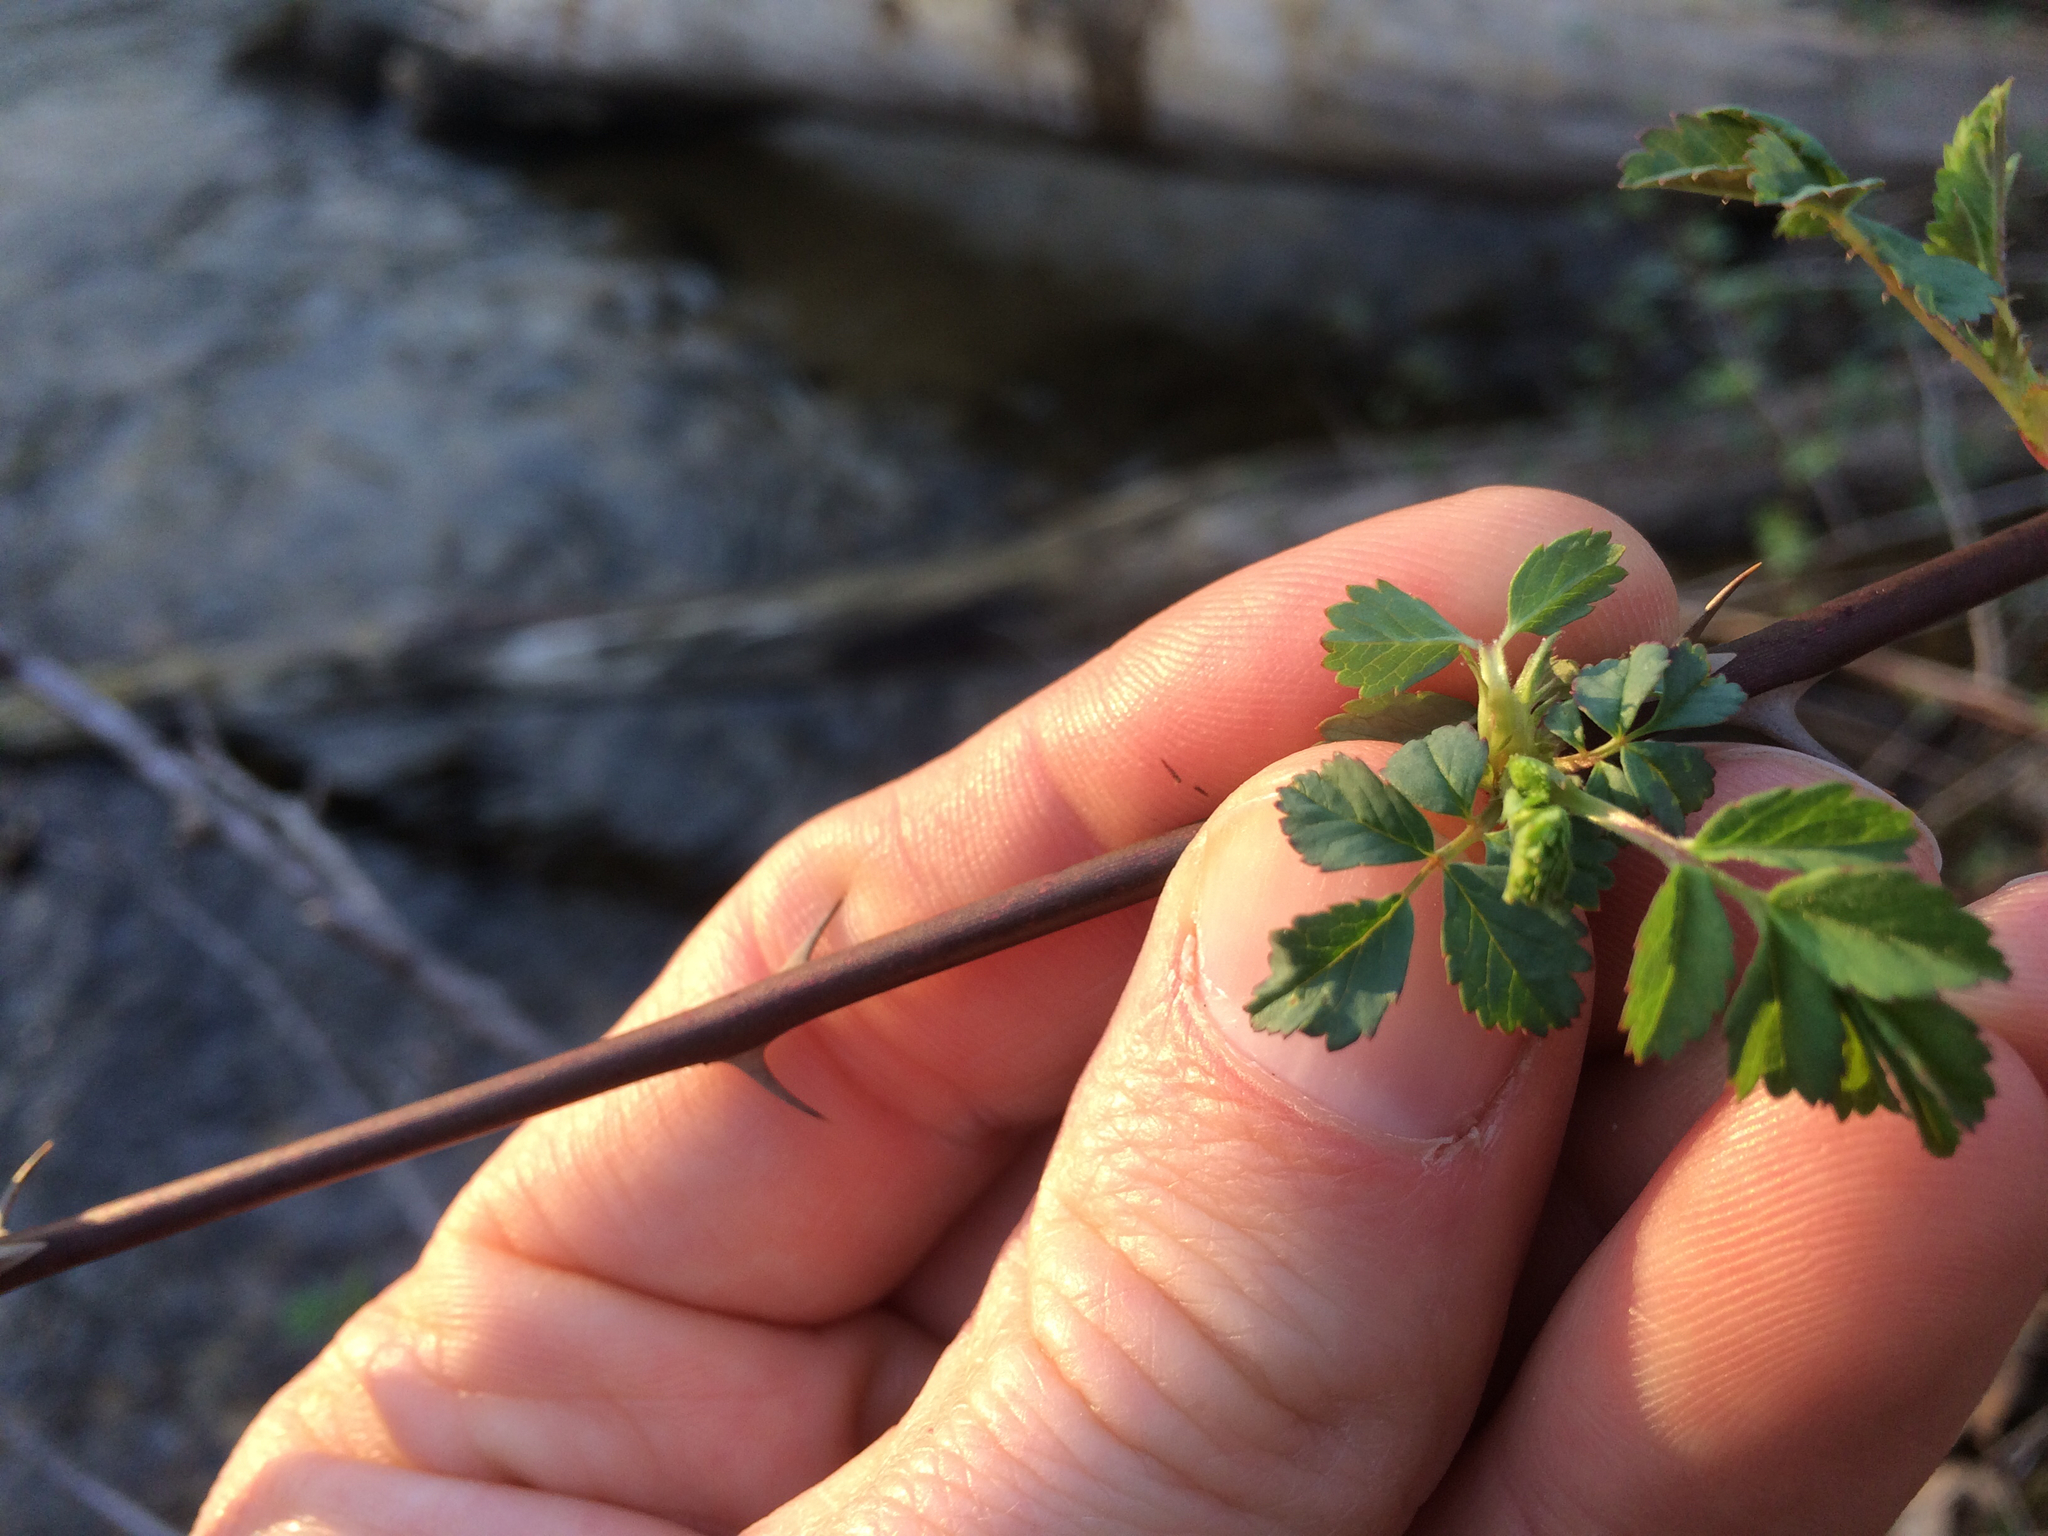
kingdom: Plantae
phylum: Tracheophyta
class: Magnoliopsida
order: Rosales
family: Rosaceae
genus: Rosa
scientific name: Rosa multiflora
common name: Multiflora rose
